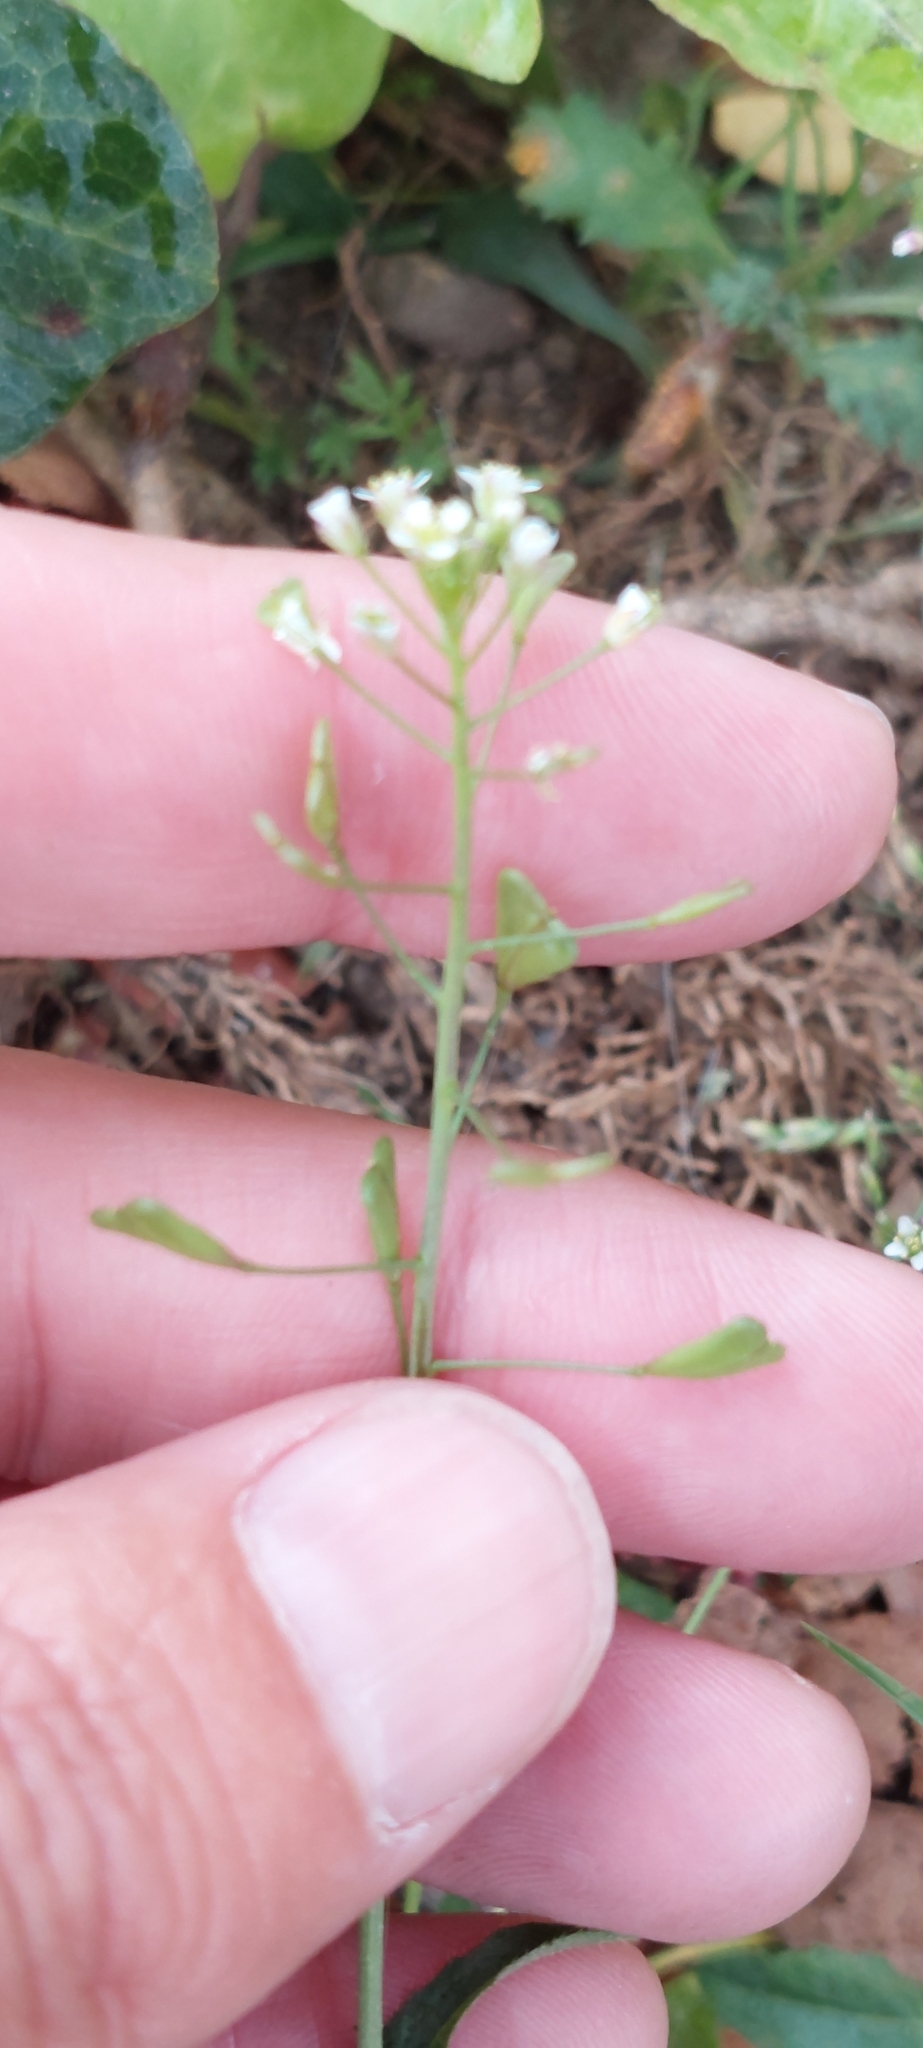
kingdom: Plantae
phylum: Tracheophyta
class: Magnoliopsida
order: Brassicales
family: Brassicaceae
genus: Capsella
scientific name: Capsella bursa-pastoris
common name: Shepherd's purse
